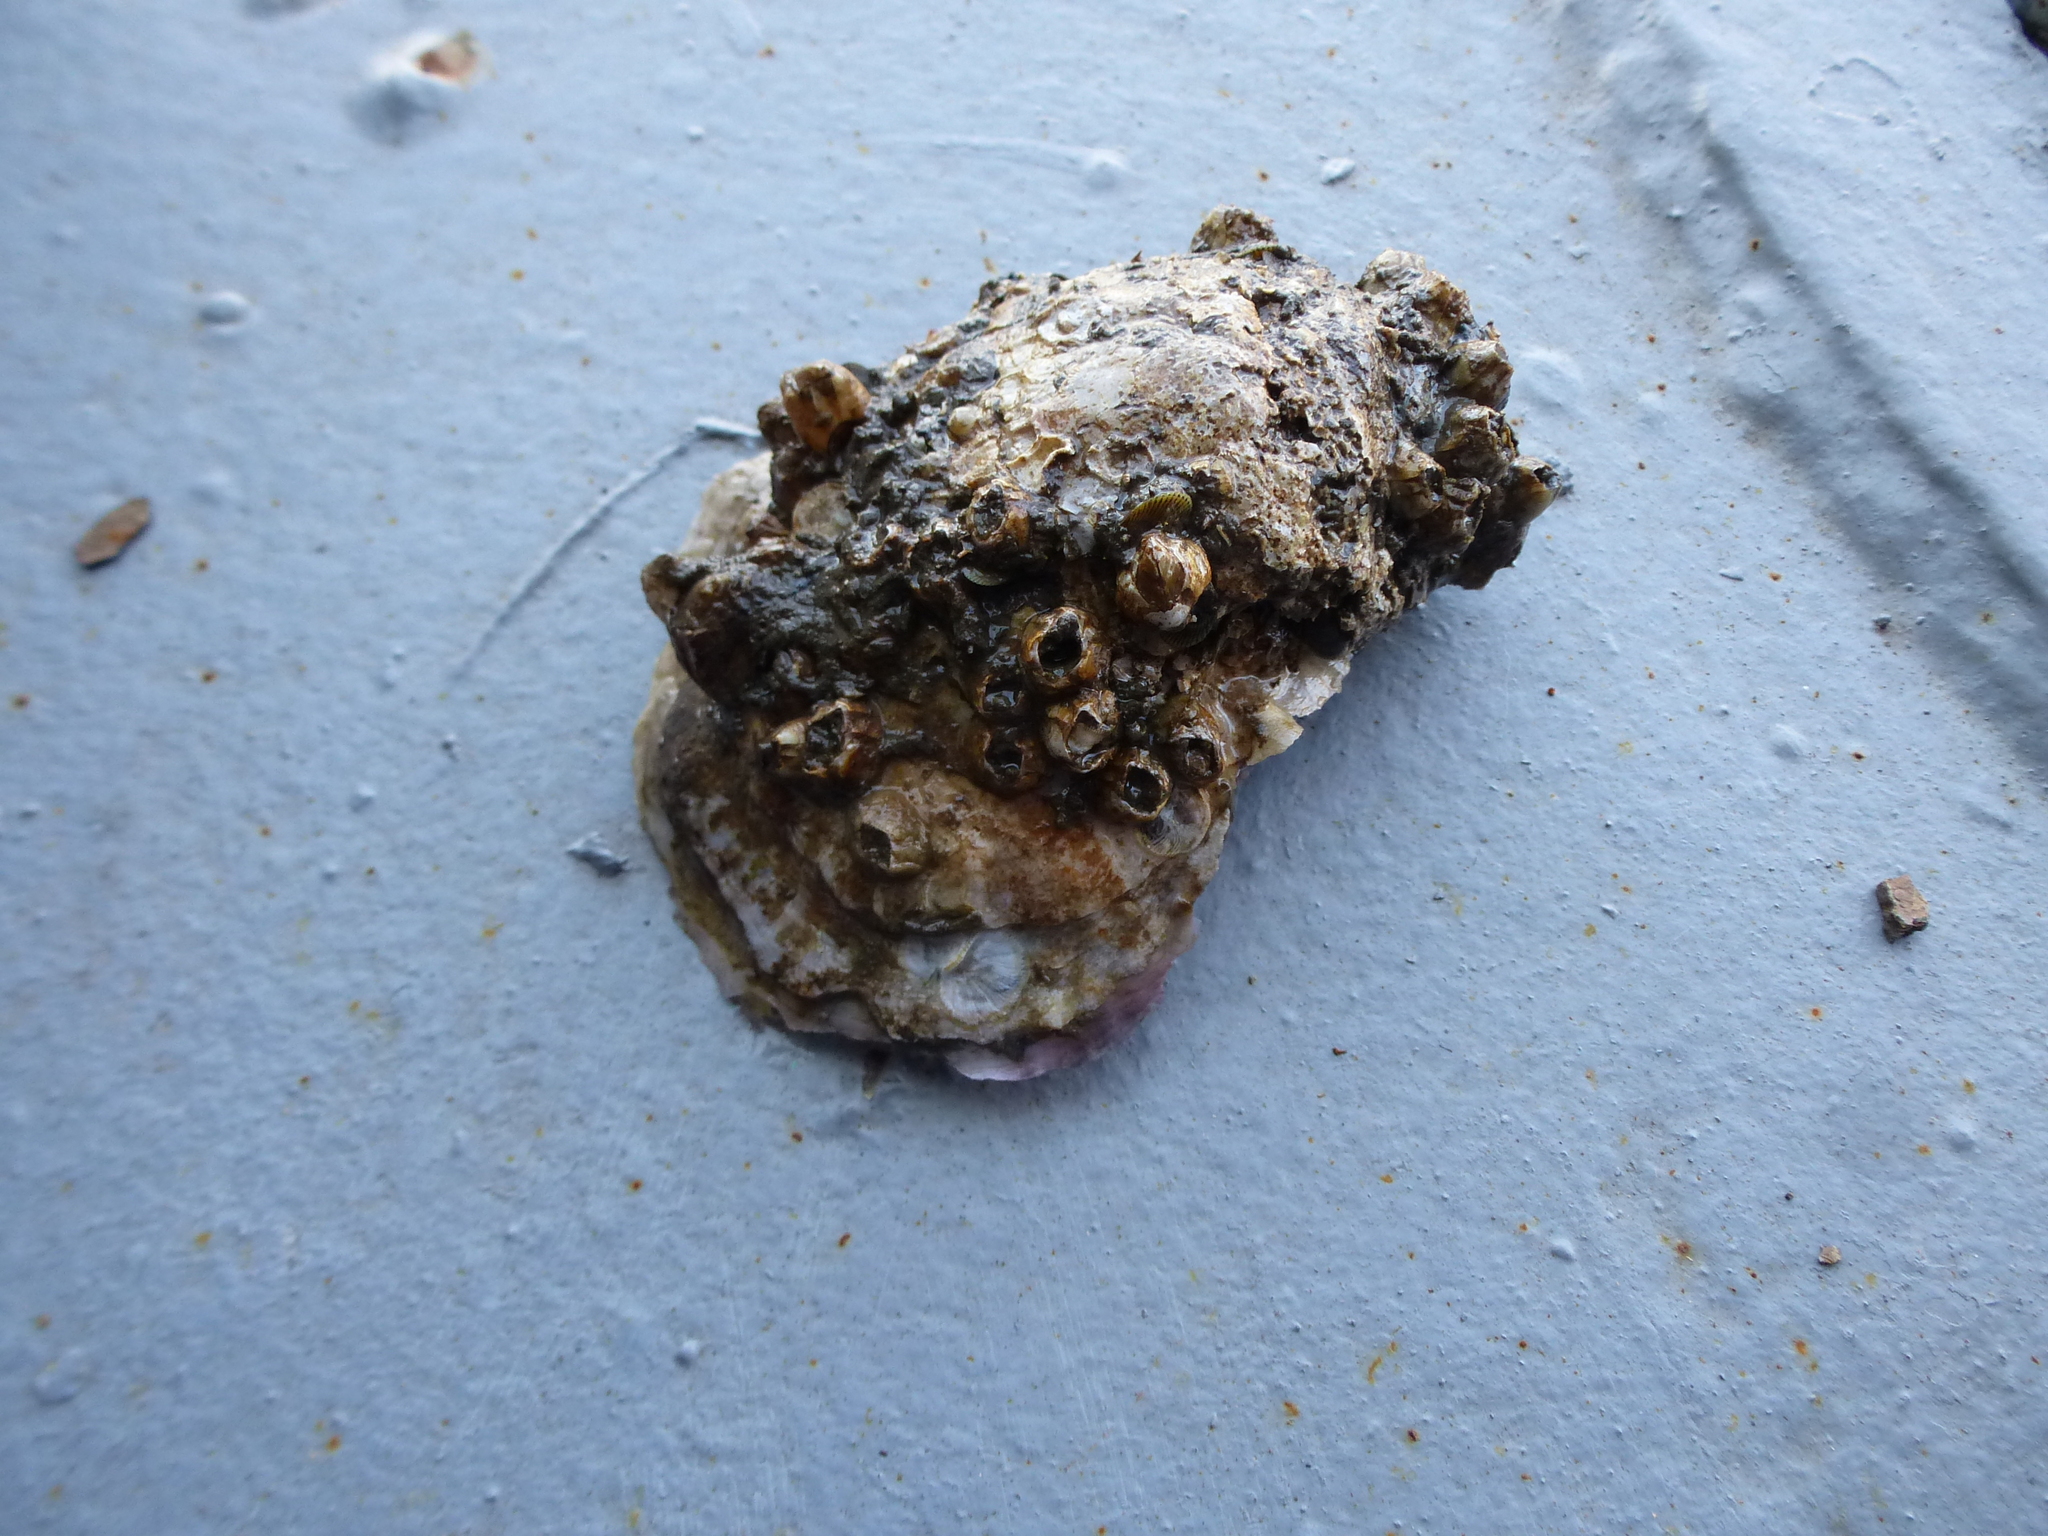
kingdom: Animalia
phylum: Mollusca
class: Bivalvia
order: Ostreida
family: Ostreidae
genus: Crassostrea
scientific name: Crassostrea virginica
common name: American oyster
